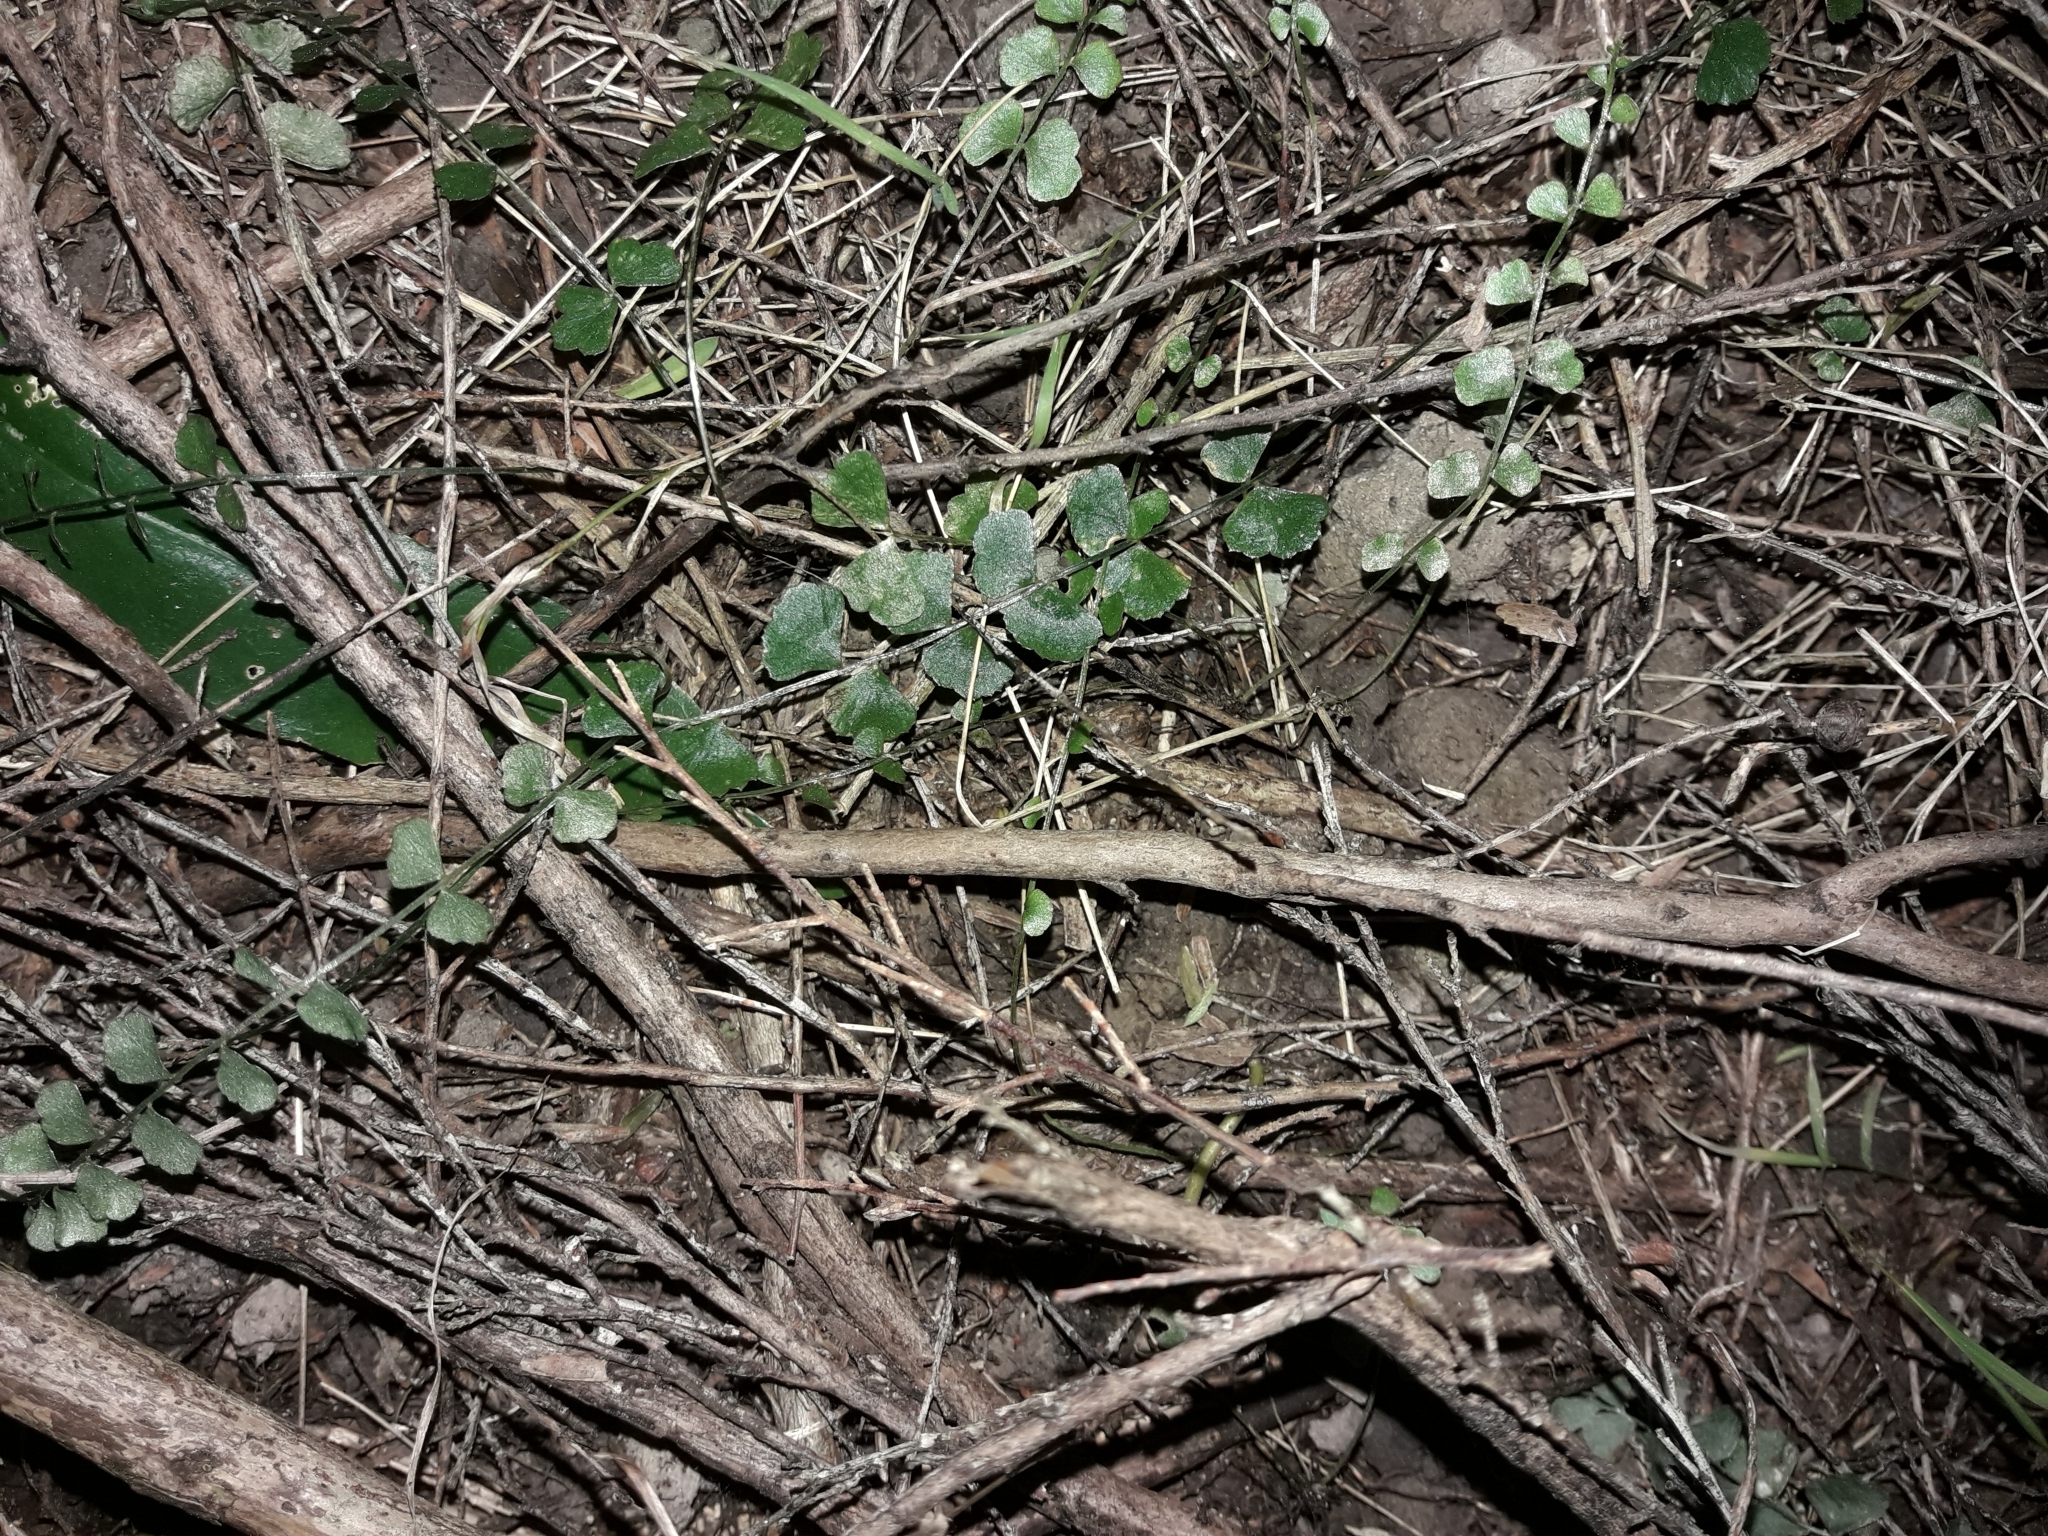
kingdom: Plantae
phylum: Tracheophyta
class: Polypodiopsida
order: Polypodiales
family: Aspleniaceae
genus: Asplenium
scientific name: Asplenium flabellifolium
